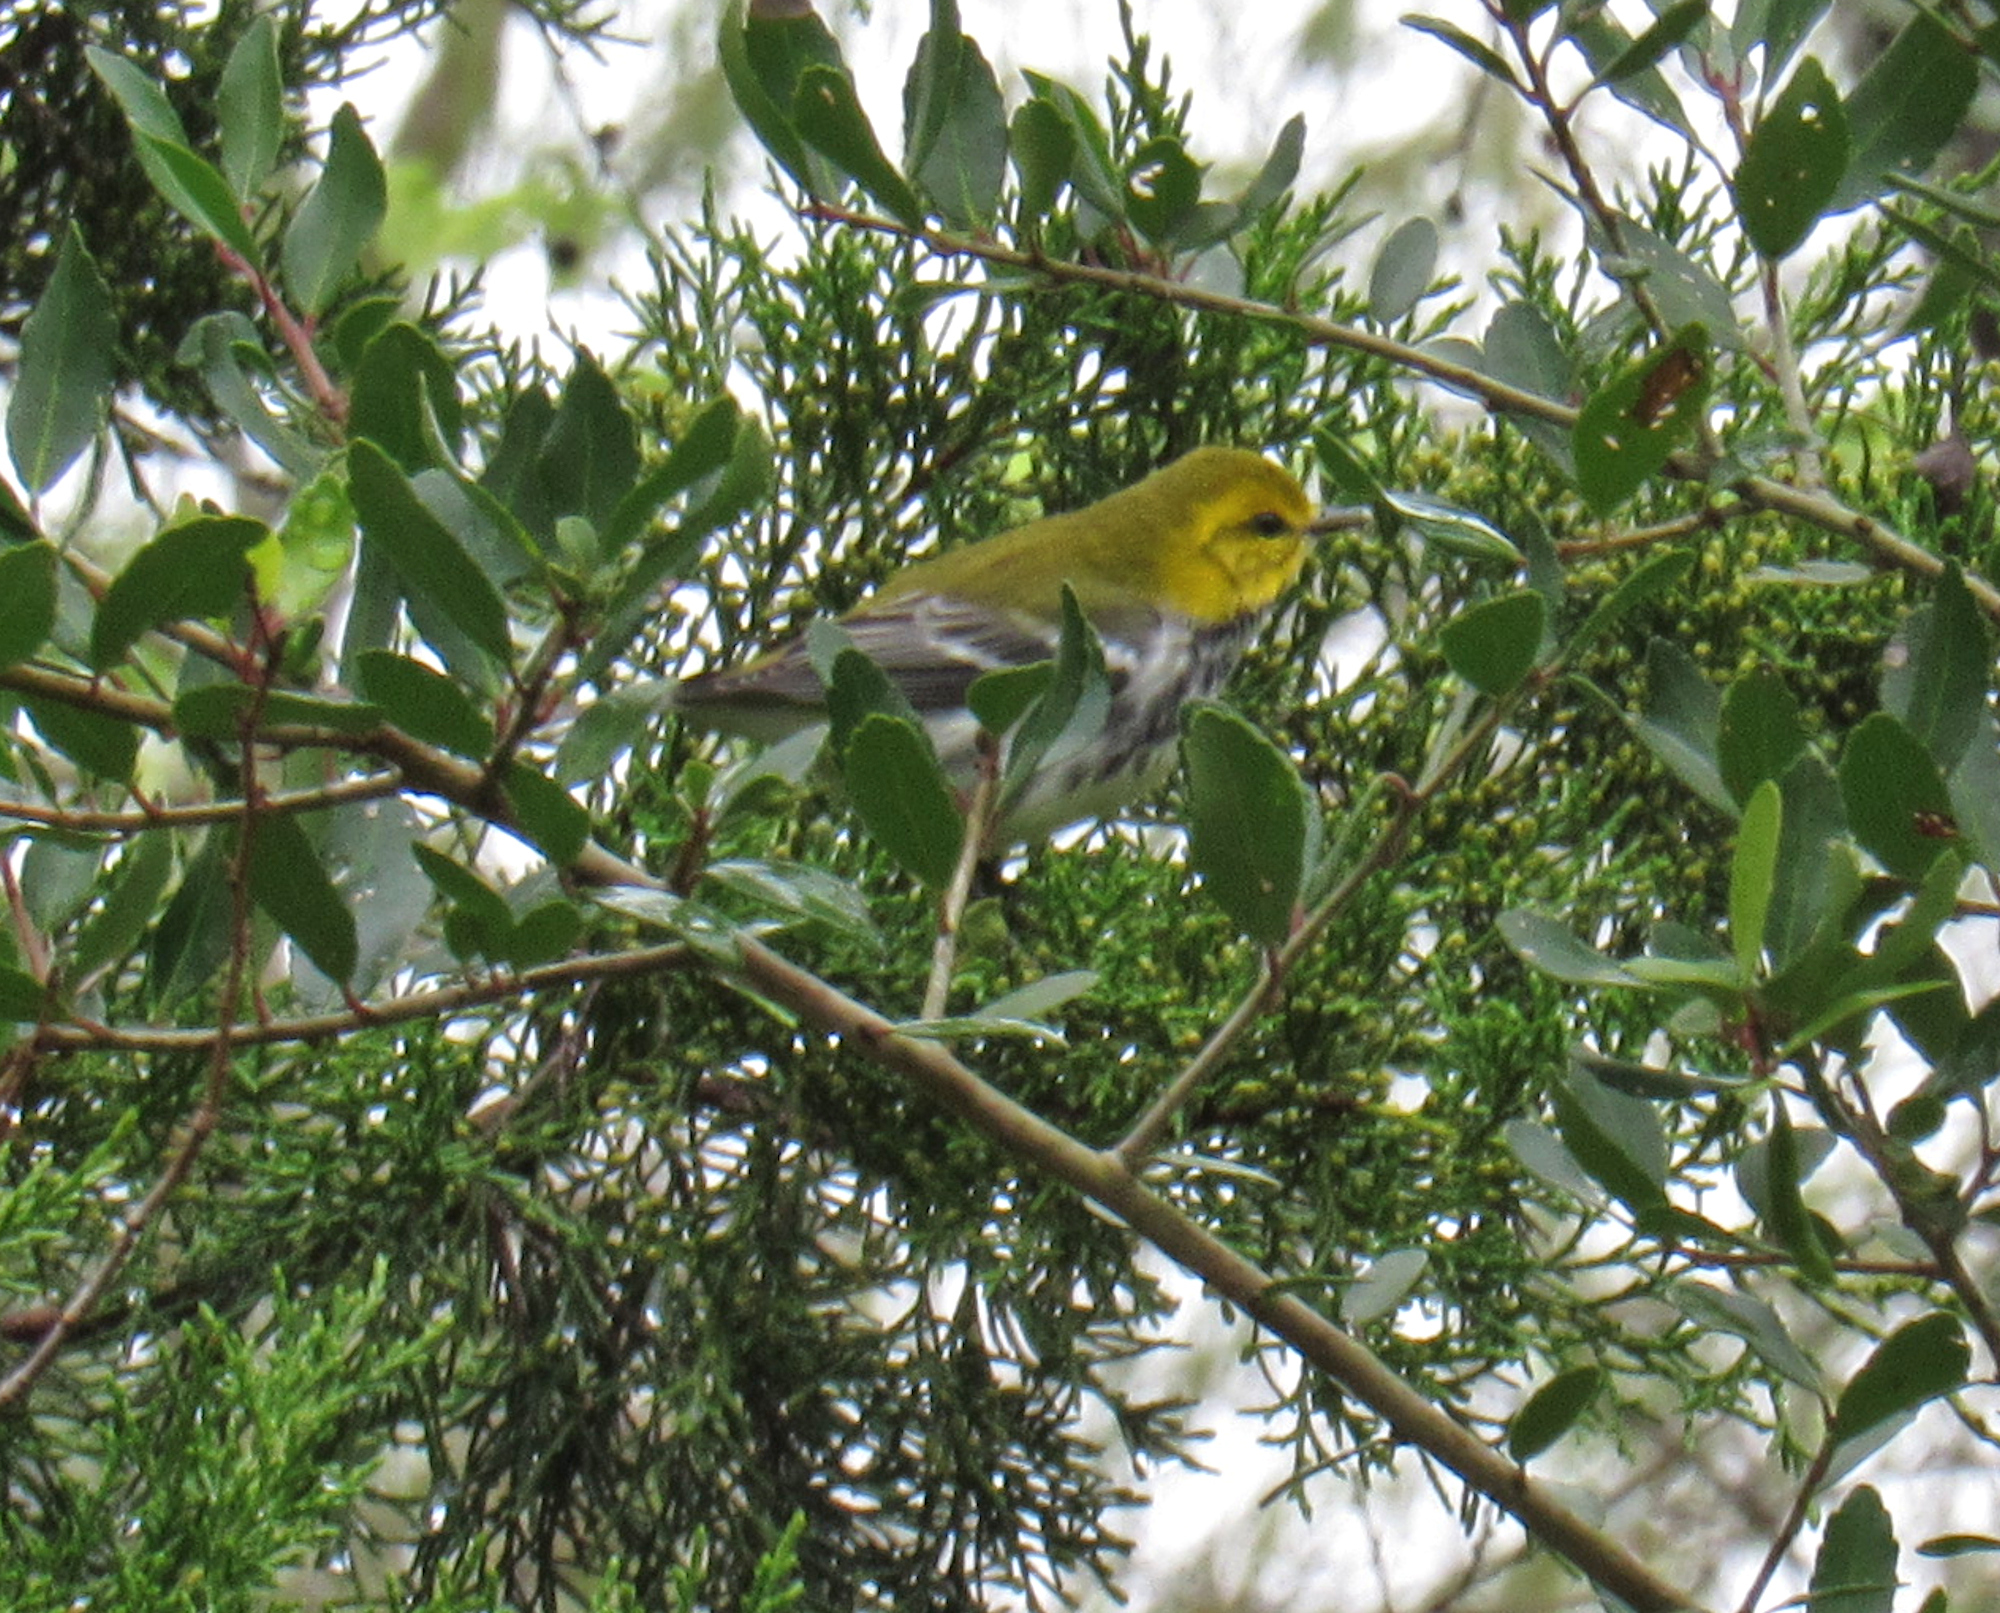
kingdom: Animalia
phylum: Chordata
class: Aves
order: Passeriformes
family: Parulidae
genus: Setophaga
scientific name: Setophaga virens
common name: Black-throated green warbler
